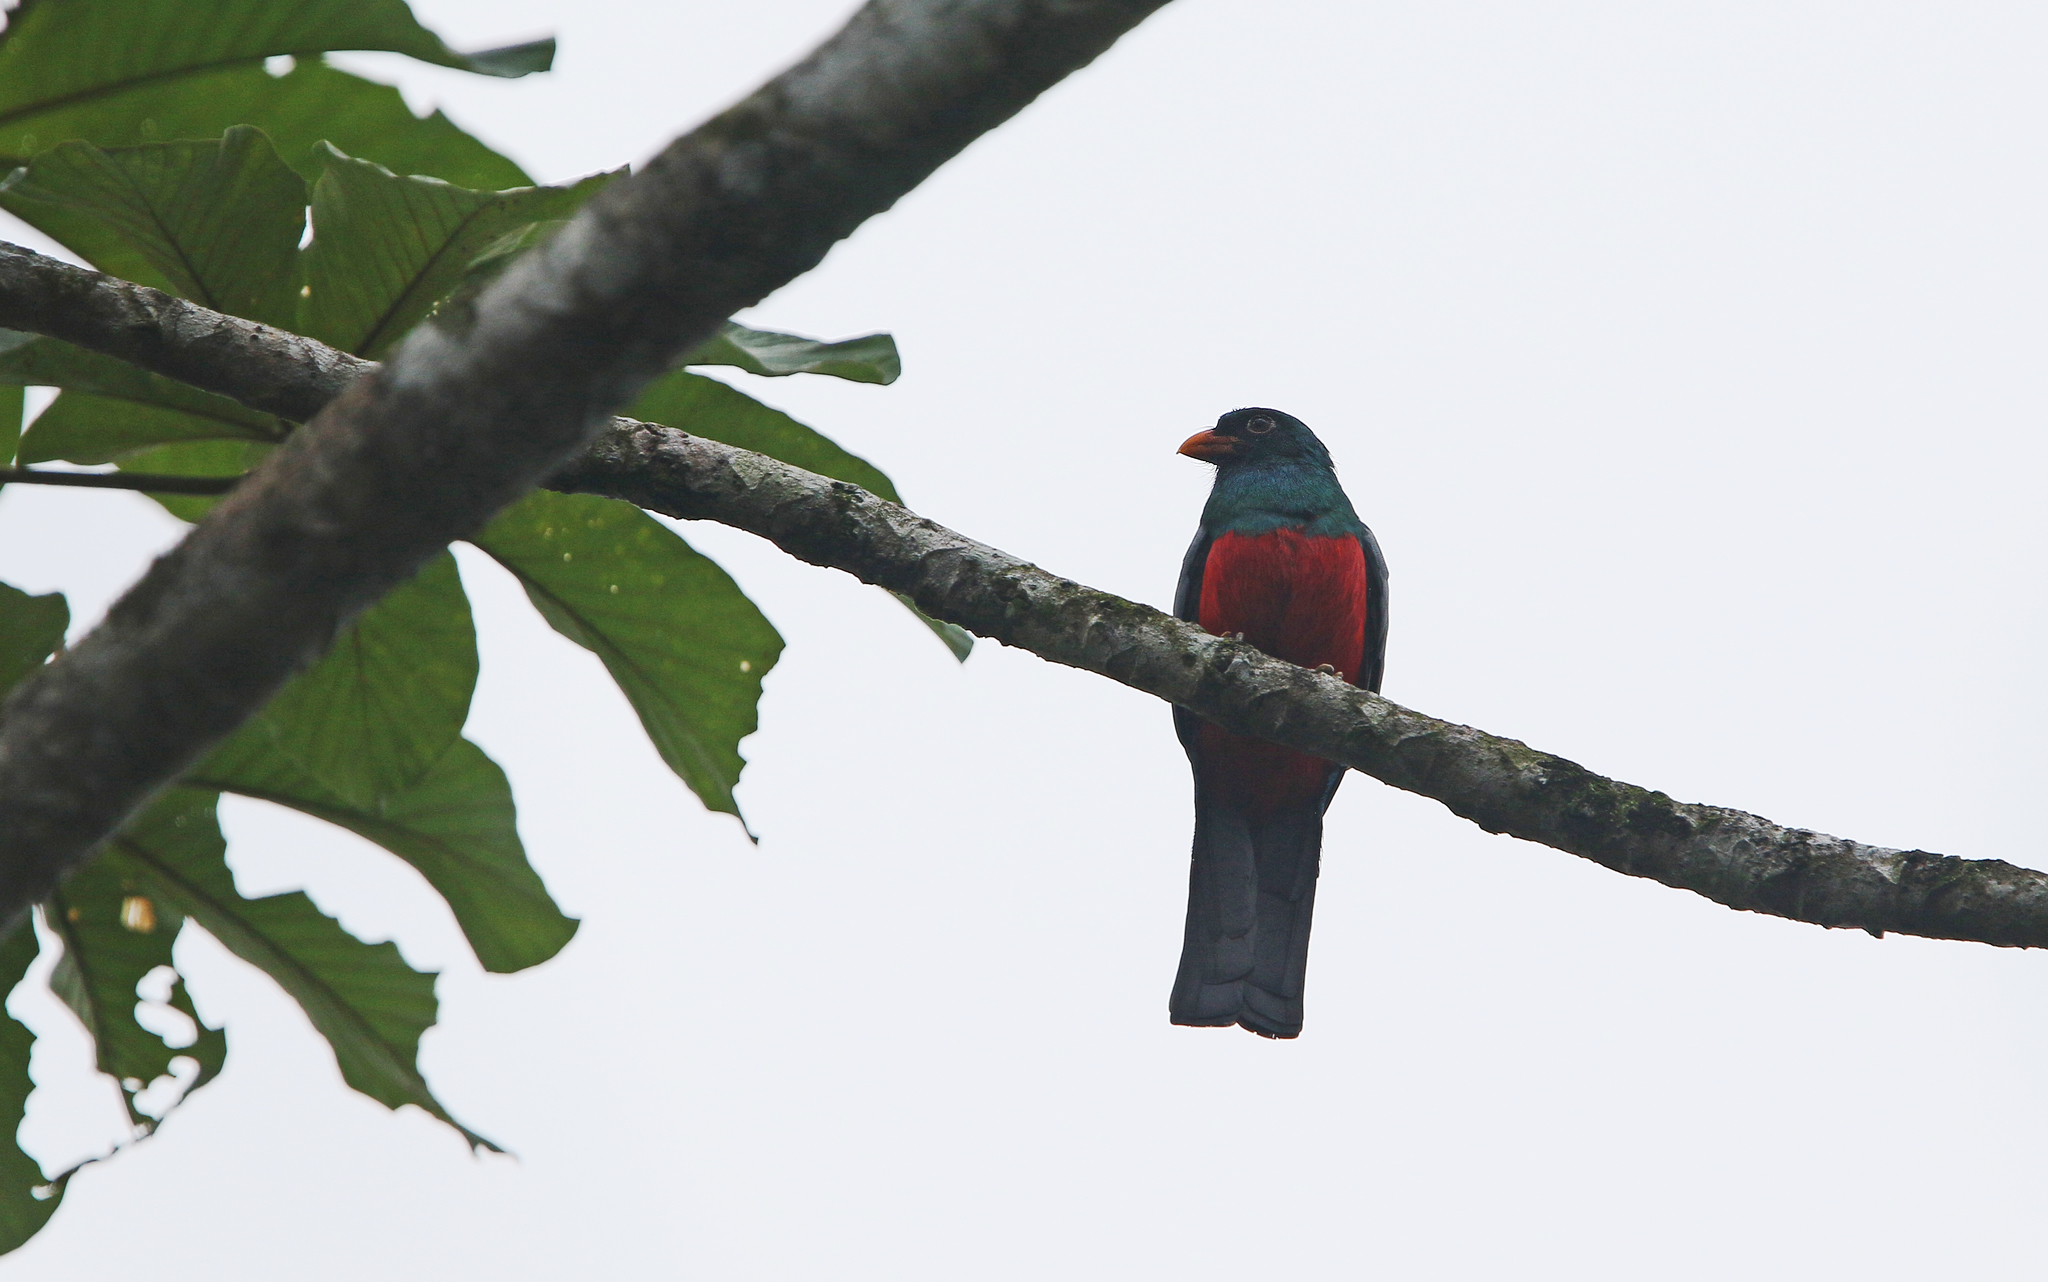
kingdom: Animalia
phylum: Chordata
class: Aves
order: Trogoniformes
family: Trogonidae
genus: Trogon
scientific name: Trogon massena
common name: Slaty-tailed trogon
